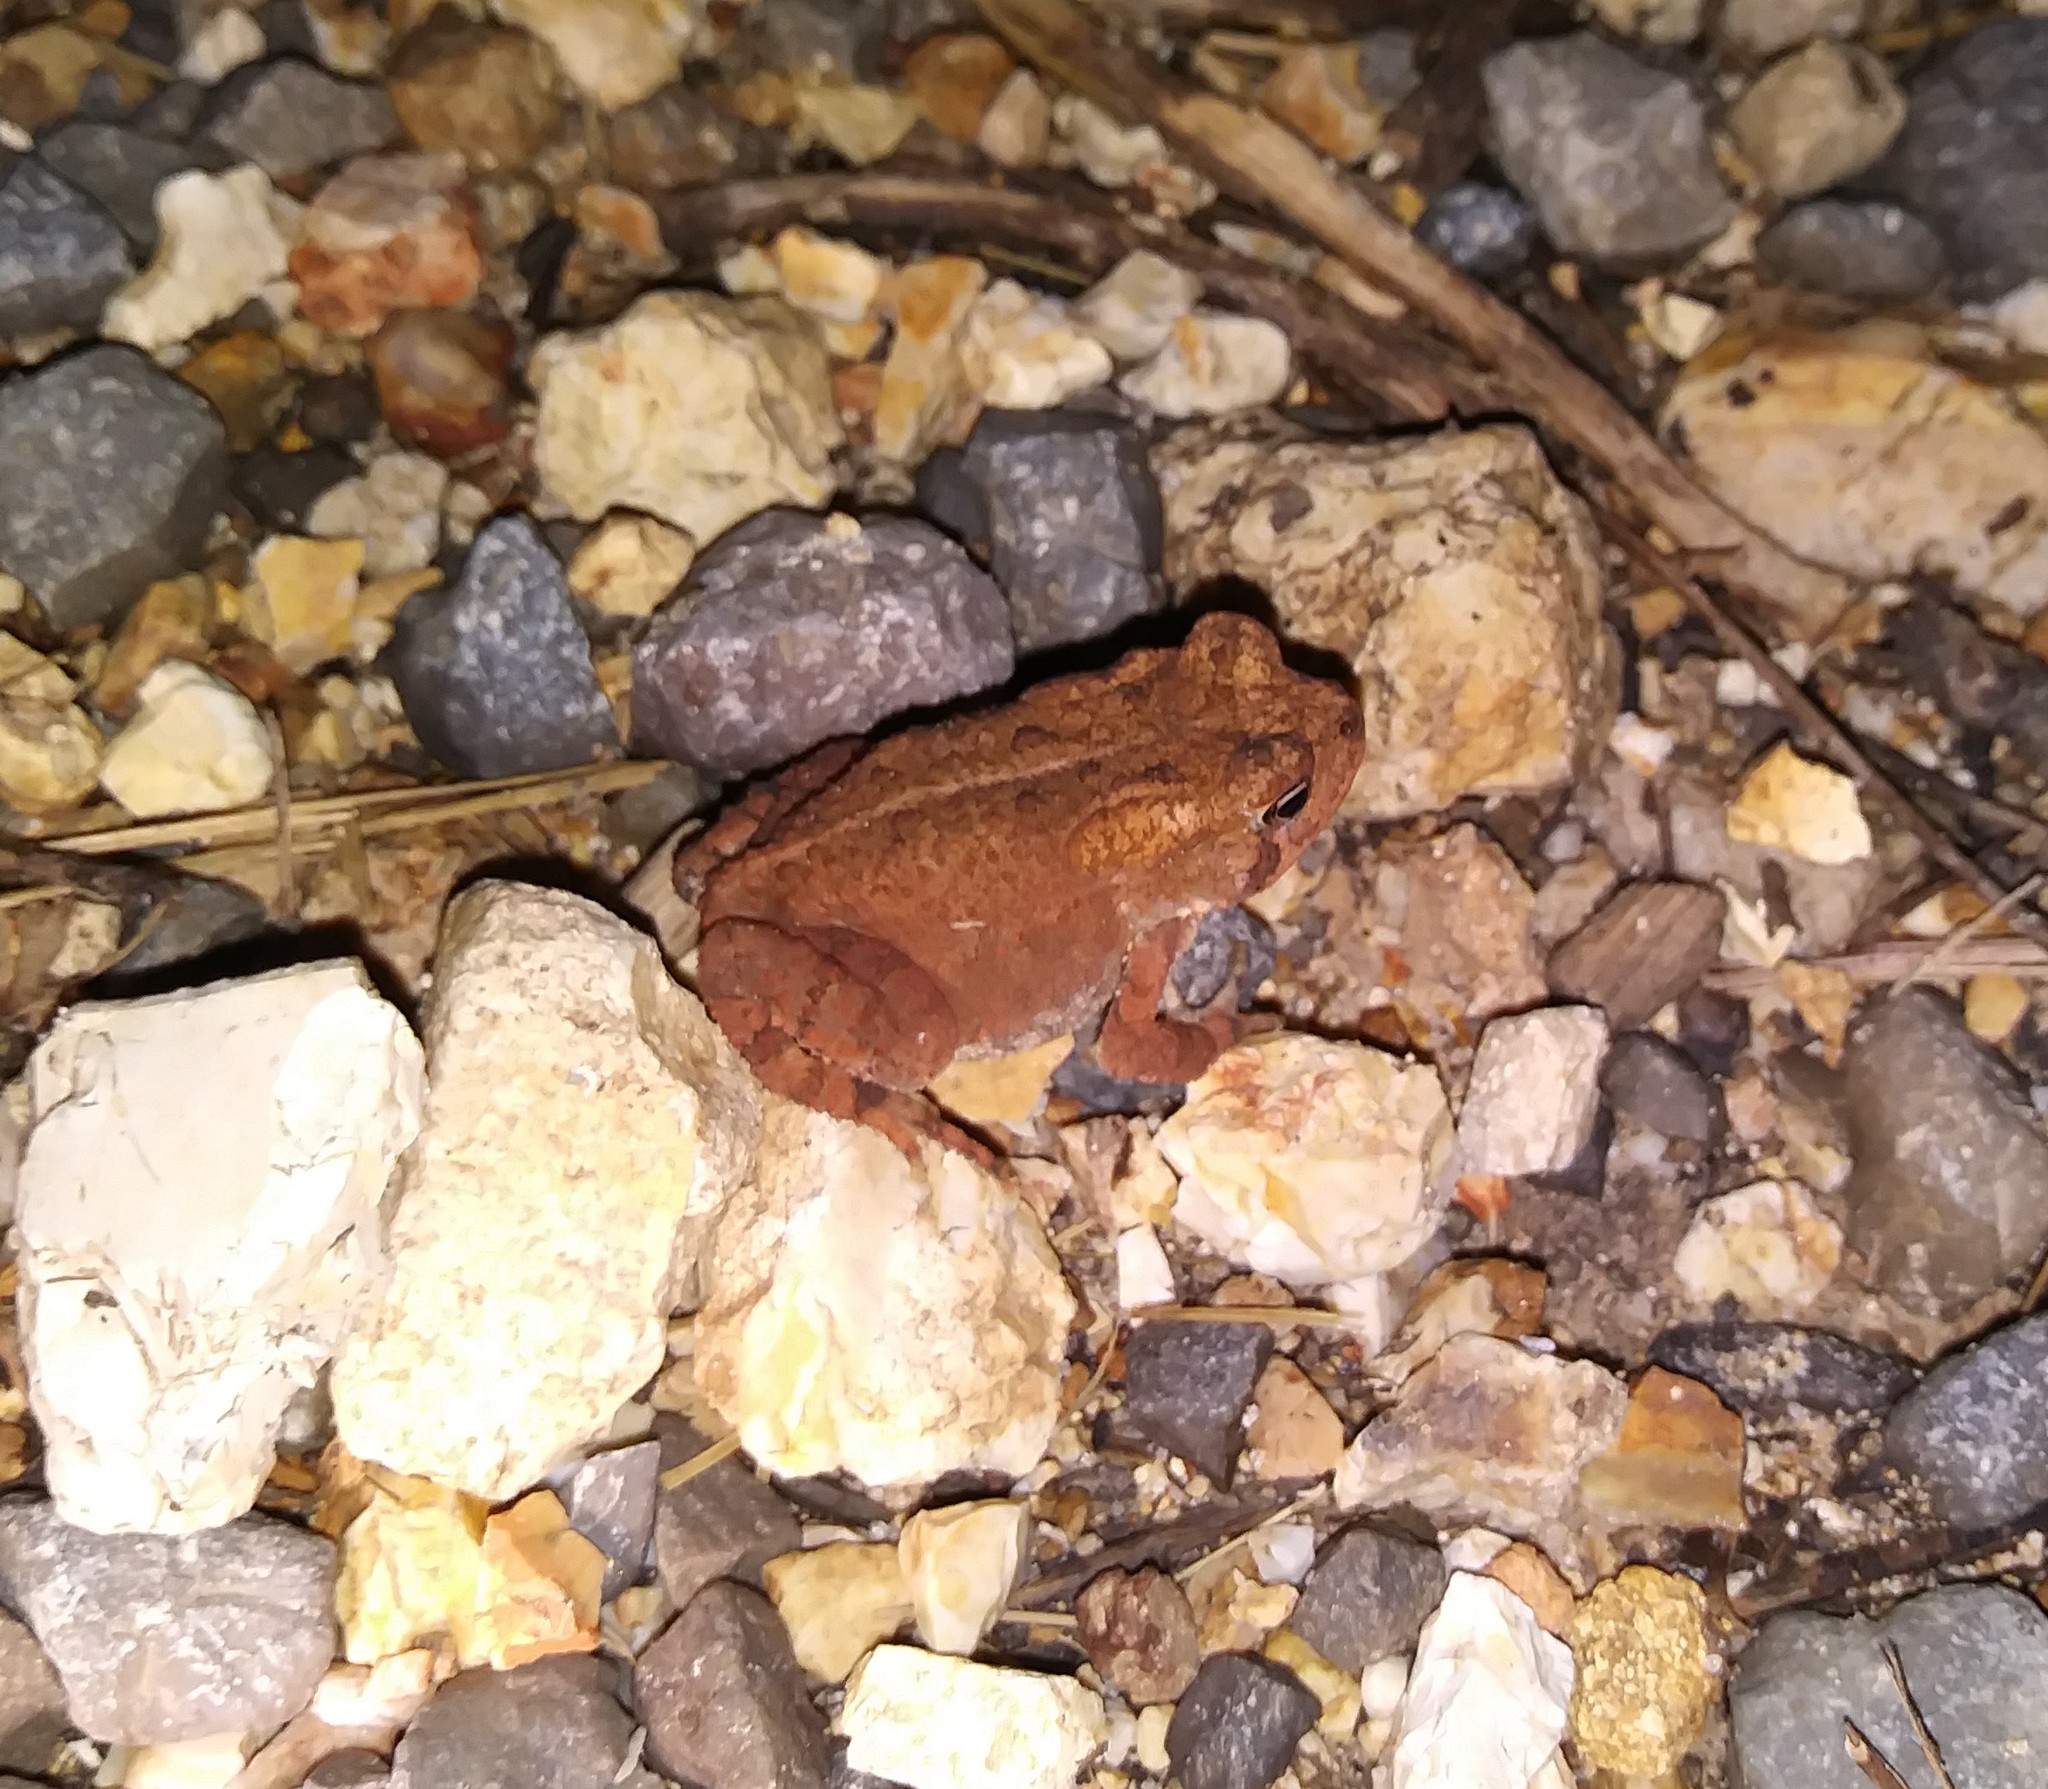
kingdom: Animalia
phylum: Chordata
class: Amphibia
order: Anura
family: Bufonidae
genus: Anaxyrus
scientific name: Anaxyrus americanus
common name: American toad
